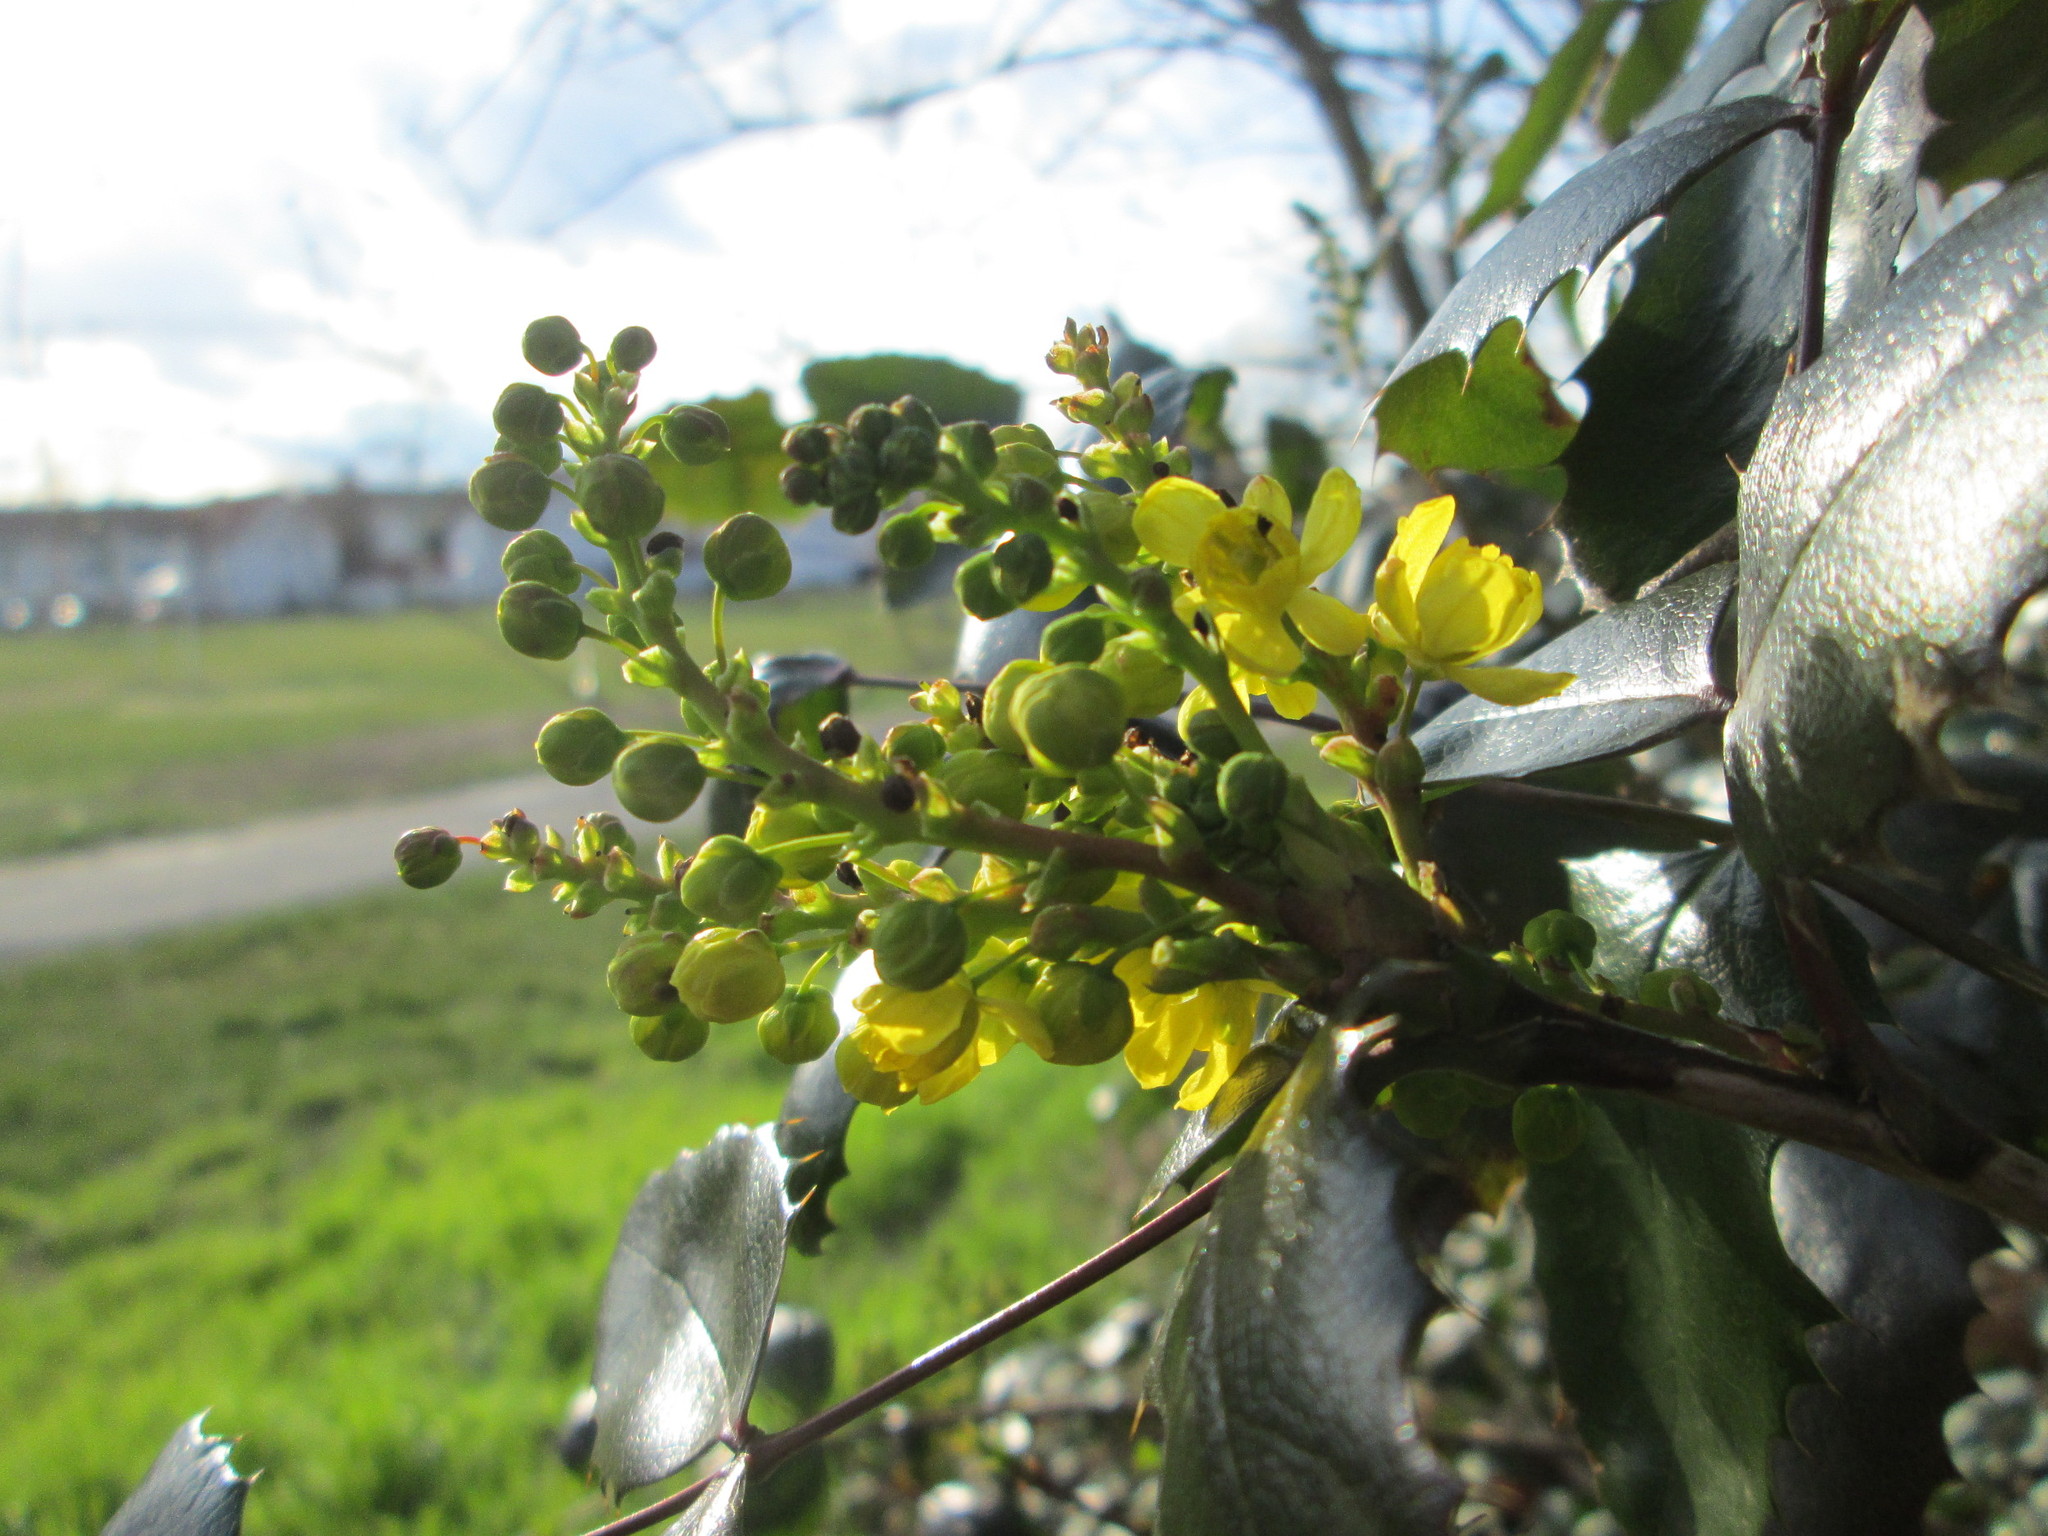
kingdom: Plantae
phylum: Tracheophyta
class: Magnoliopsida
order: Ranunculales
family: Berberidaceae
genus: Mahonia
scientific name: Mahonia aquifolium
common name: Oregon-grape
